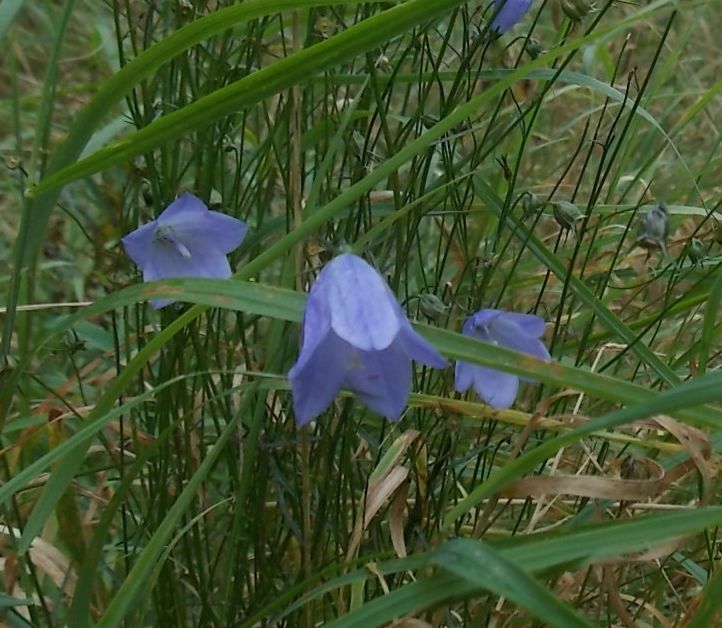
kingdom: Plantae
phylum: Tracheophyta
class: Magnoliopsida
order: Asterales
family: Campanulaceae
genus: Campanula
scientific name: Campanula rotundifolia
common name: Harebell
